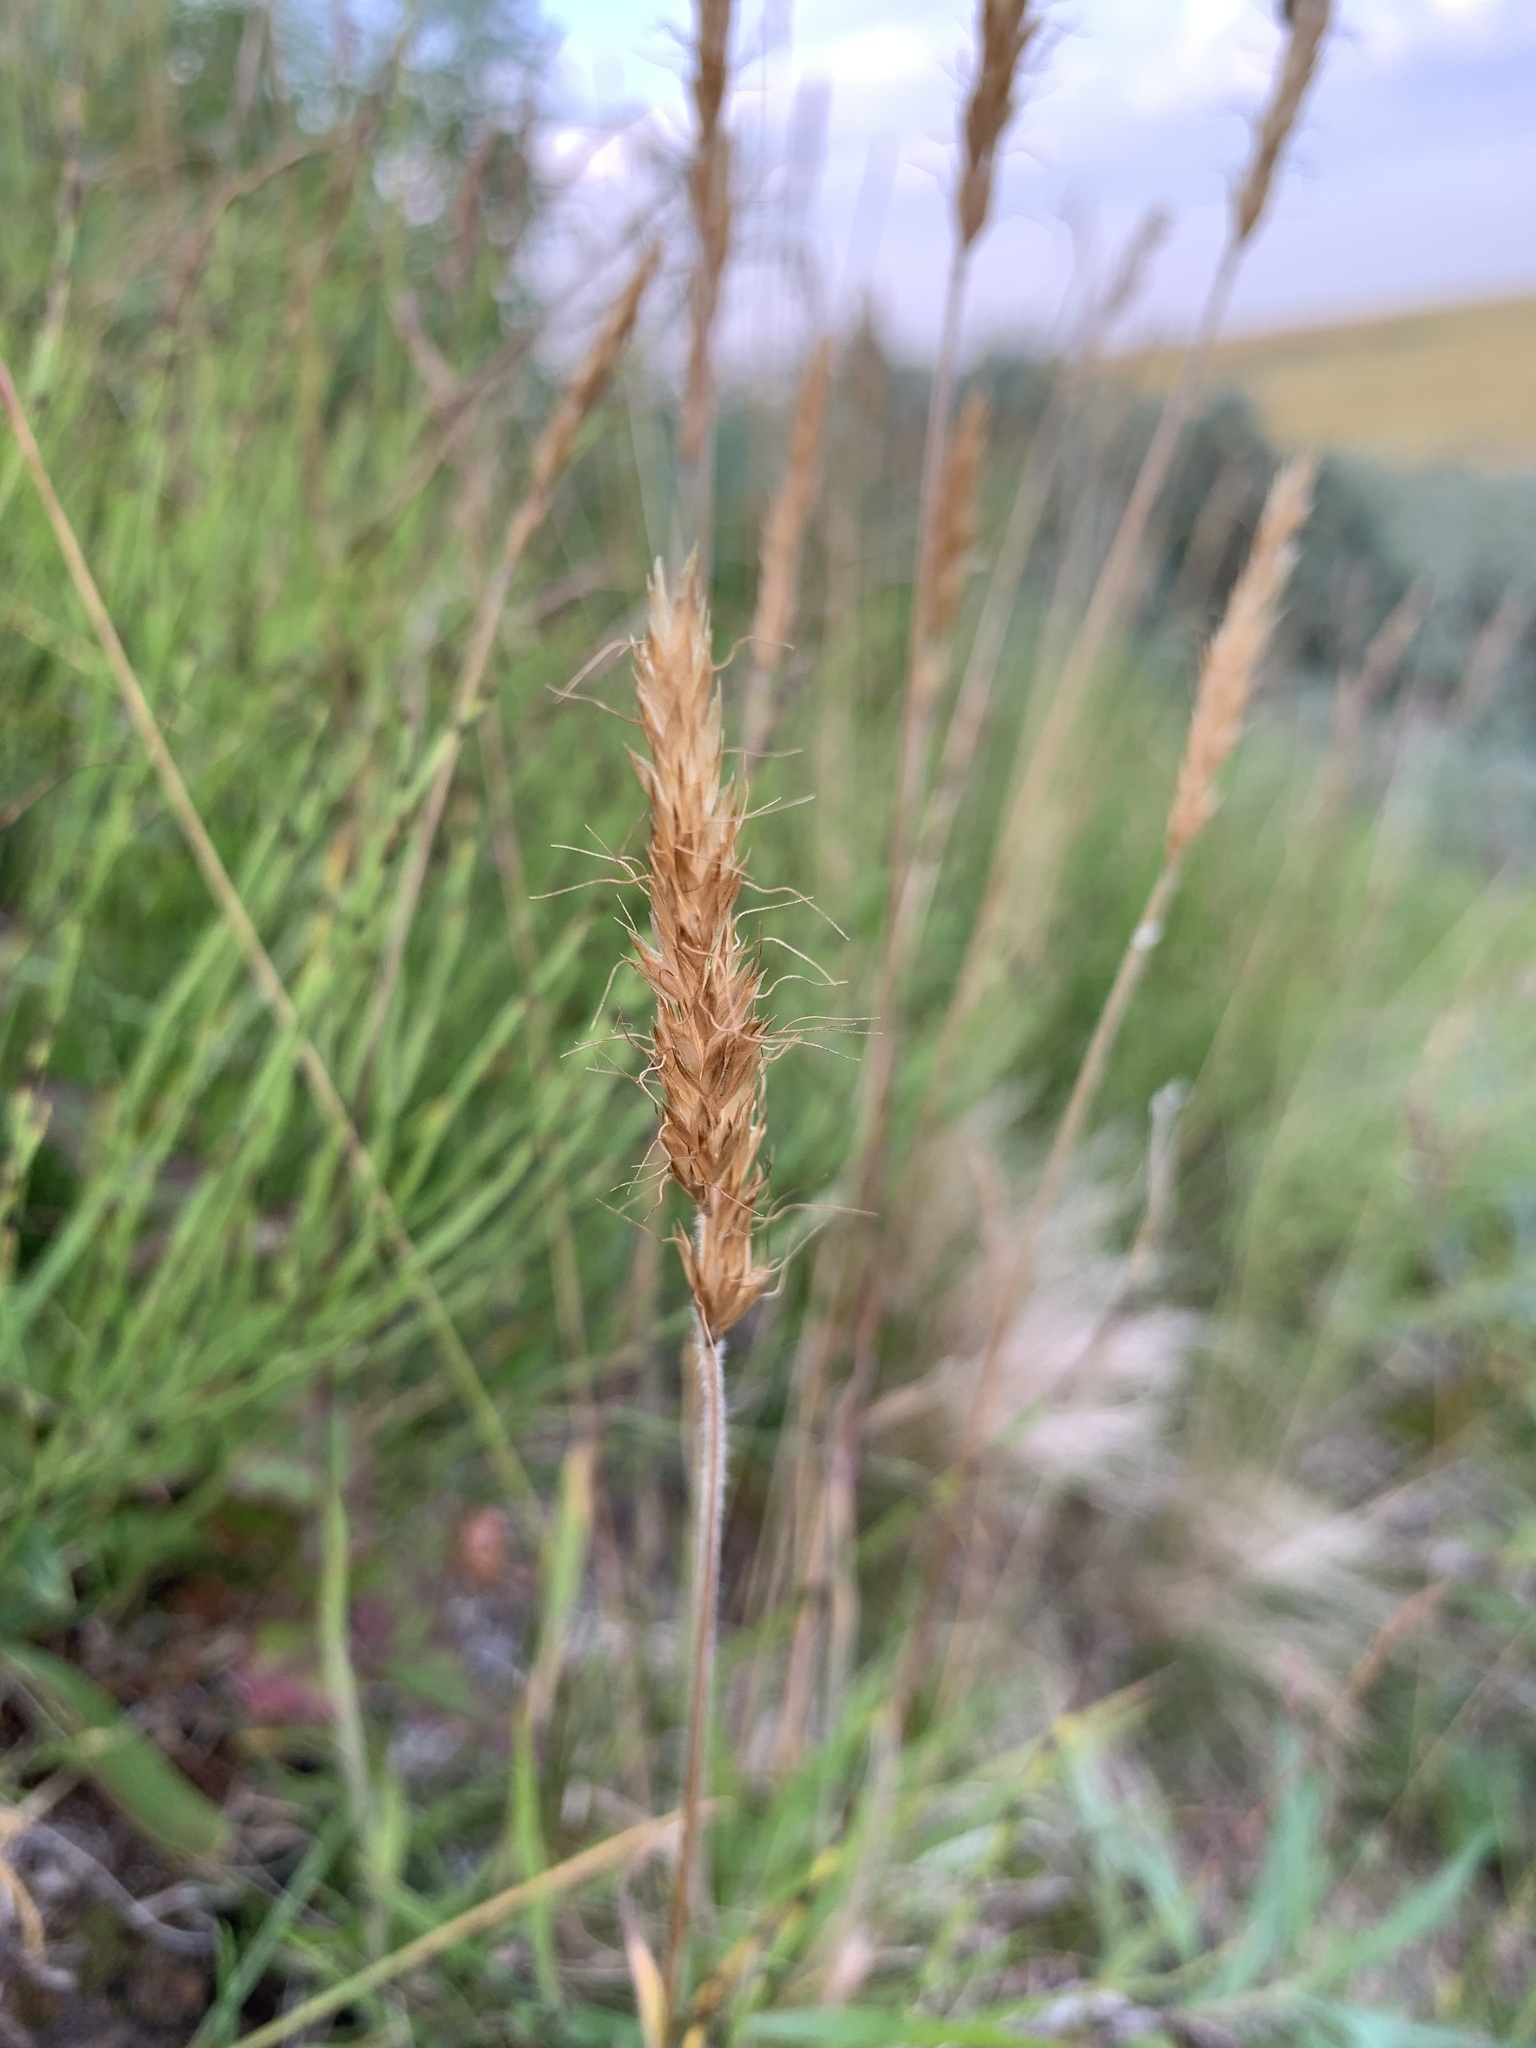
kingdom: Plantae
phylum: Tracheophyta
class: Liliopsida
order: Poales
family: Poaceae
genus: Koeleria
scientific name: Koeleria spicata
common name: Mountain trisetum
